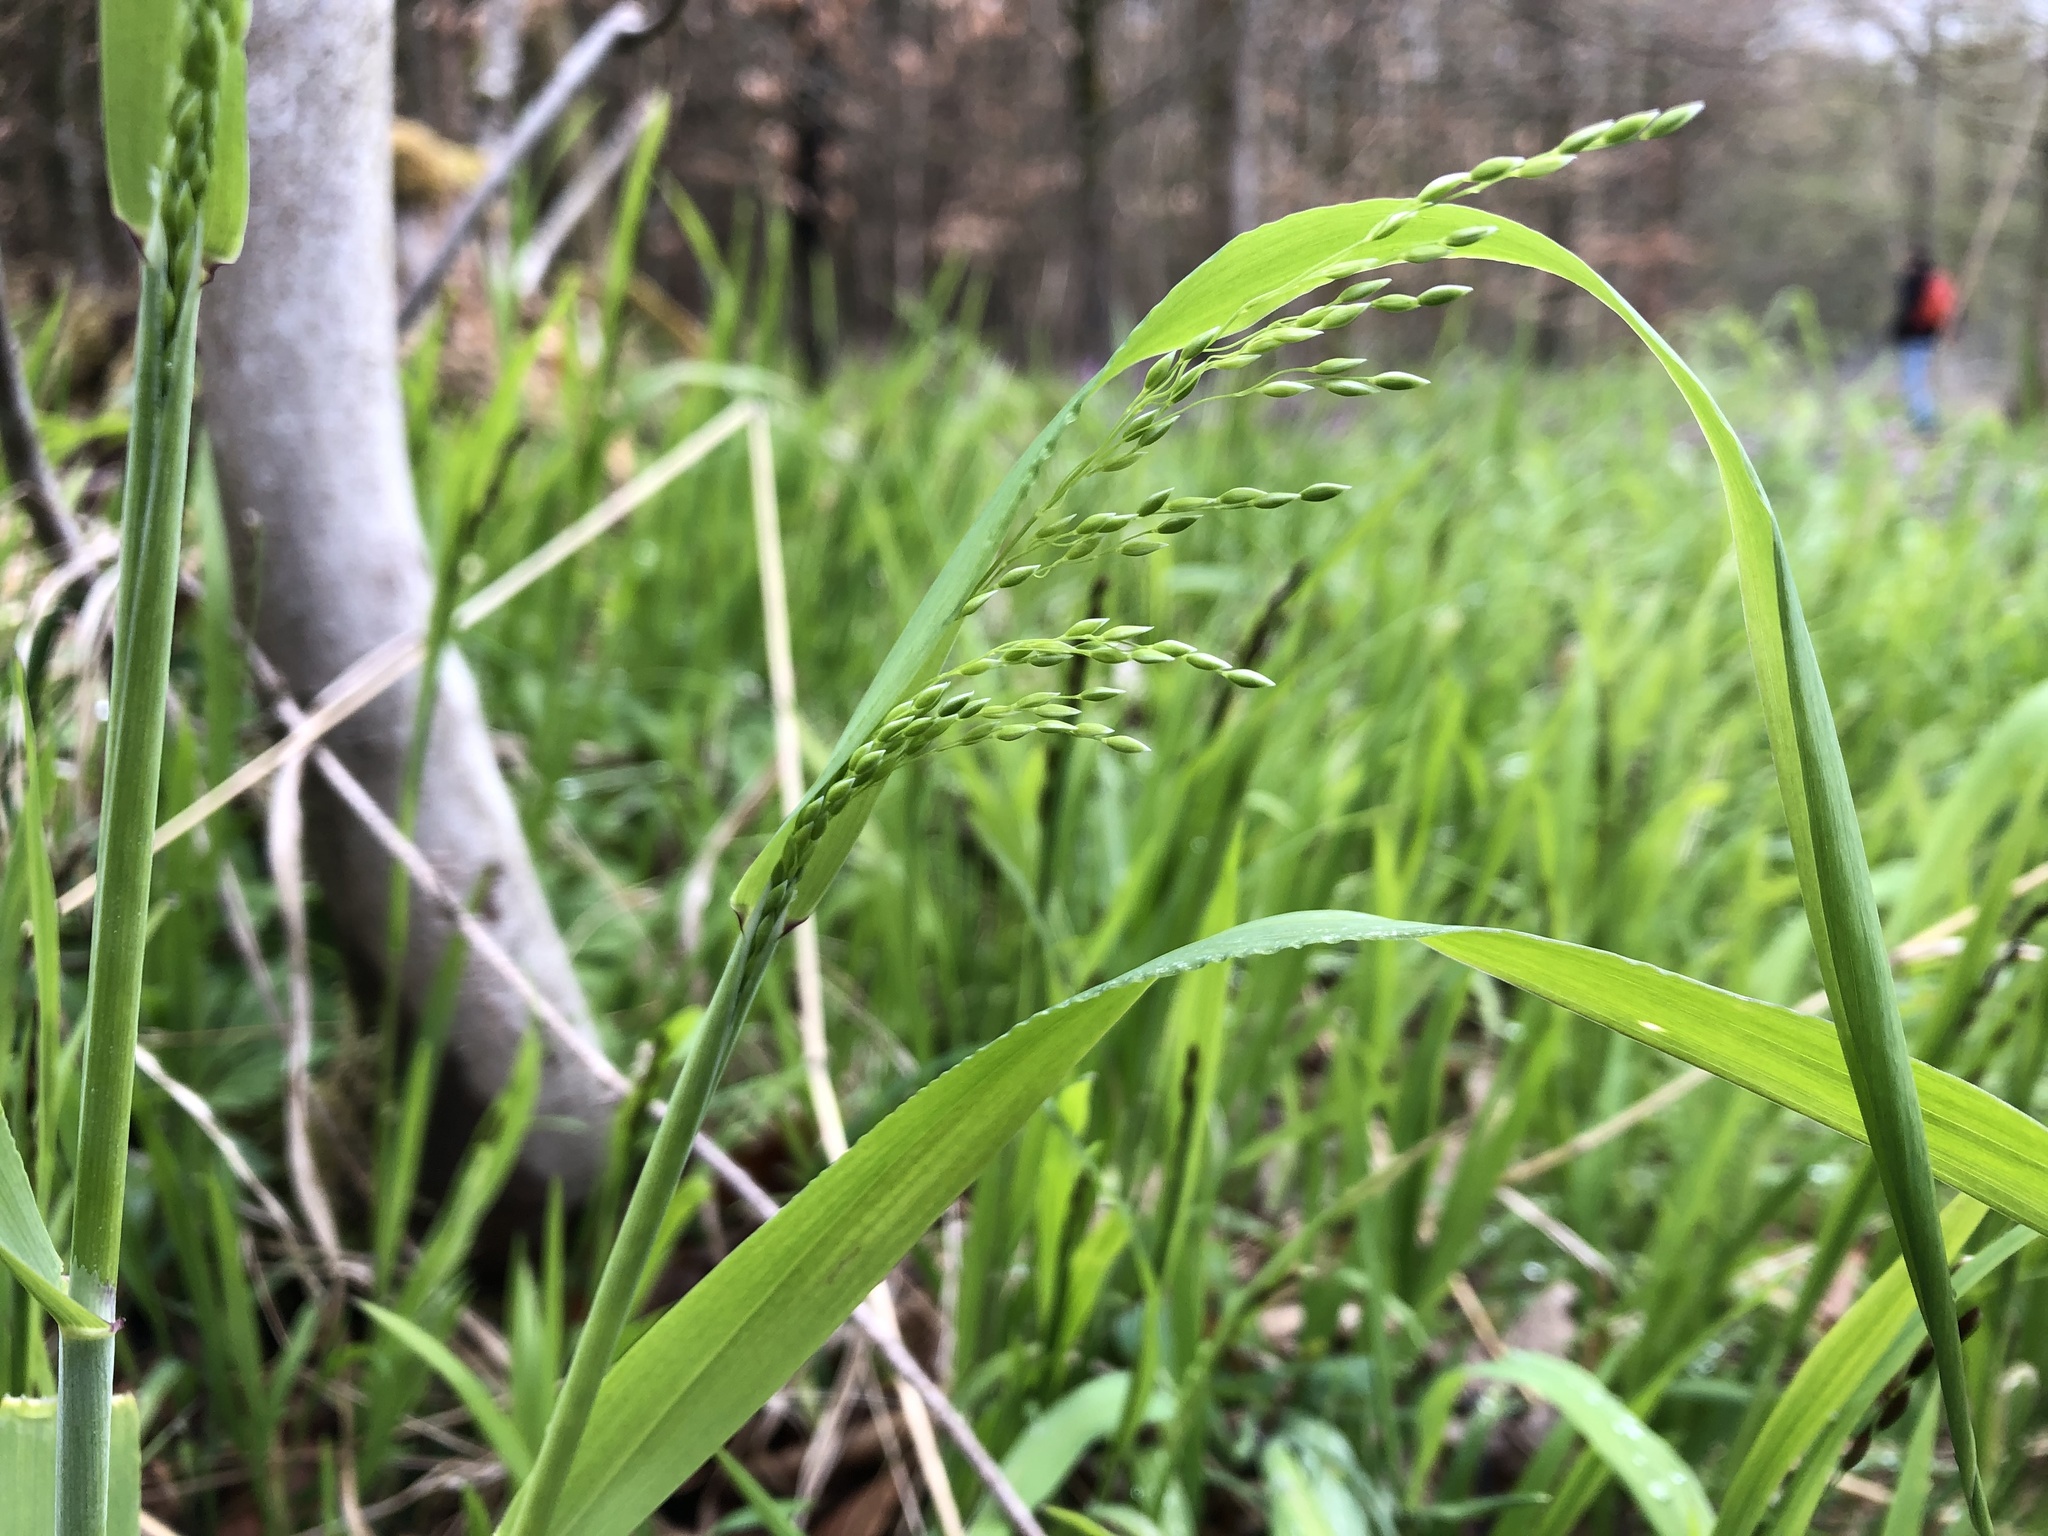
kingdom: Plantae
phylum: Tracheophyta
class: Liliopsida
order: Poales
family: Poaceae
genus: Milium
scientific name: Milium effusum
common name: Wood millet
